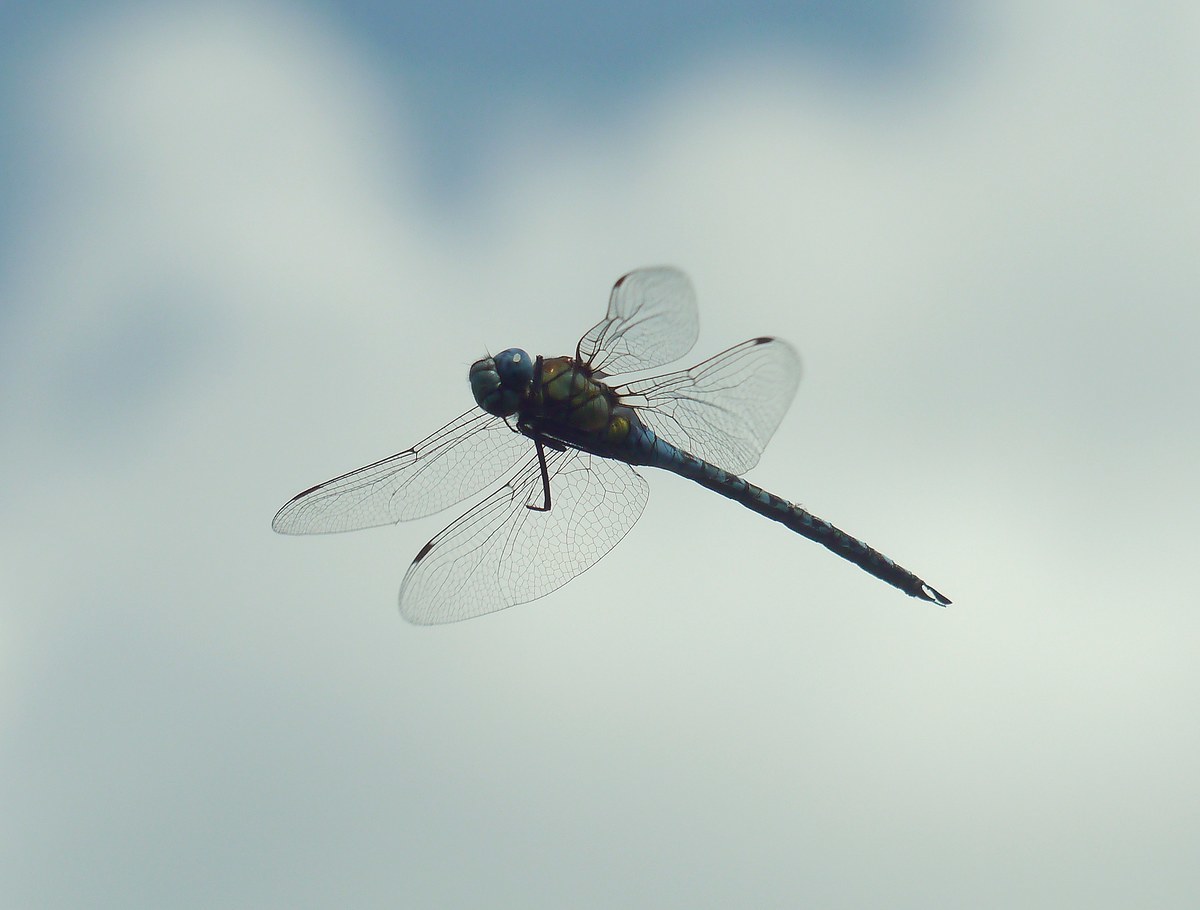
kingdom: Animalia
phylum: Arthropoda
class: Insecta
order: Odonata
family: Aeshnidae
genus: Aeshna
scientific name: Aeshna affinis
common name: Southern migrant hawker
